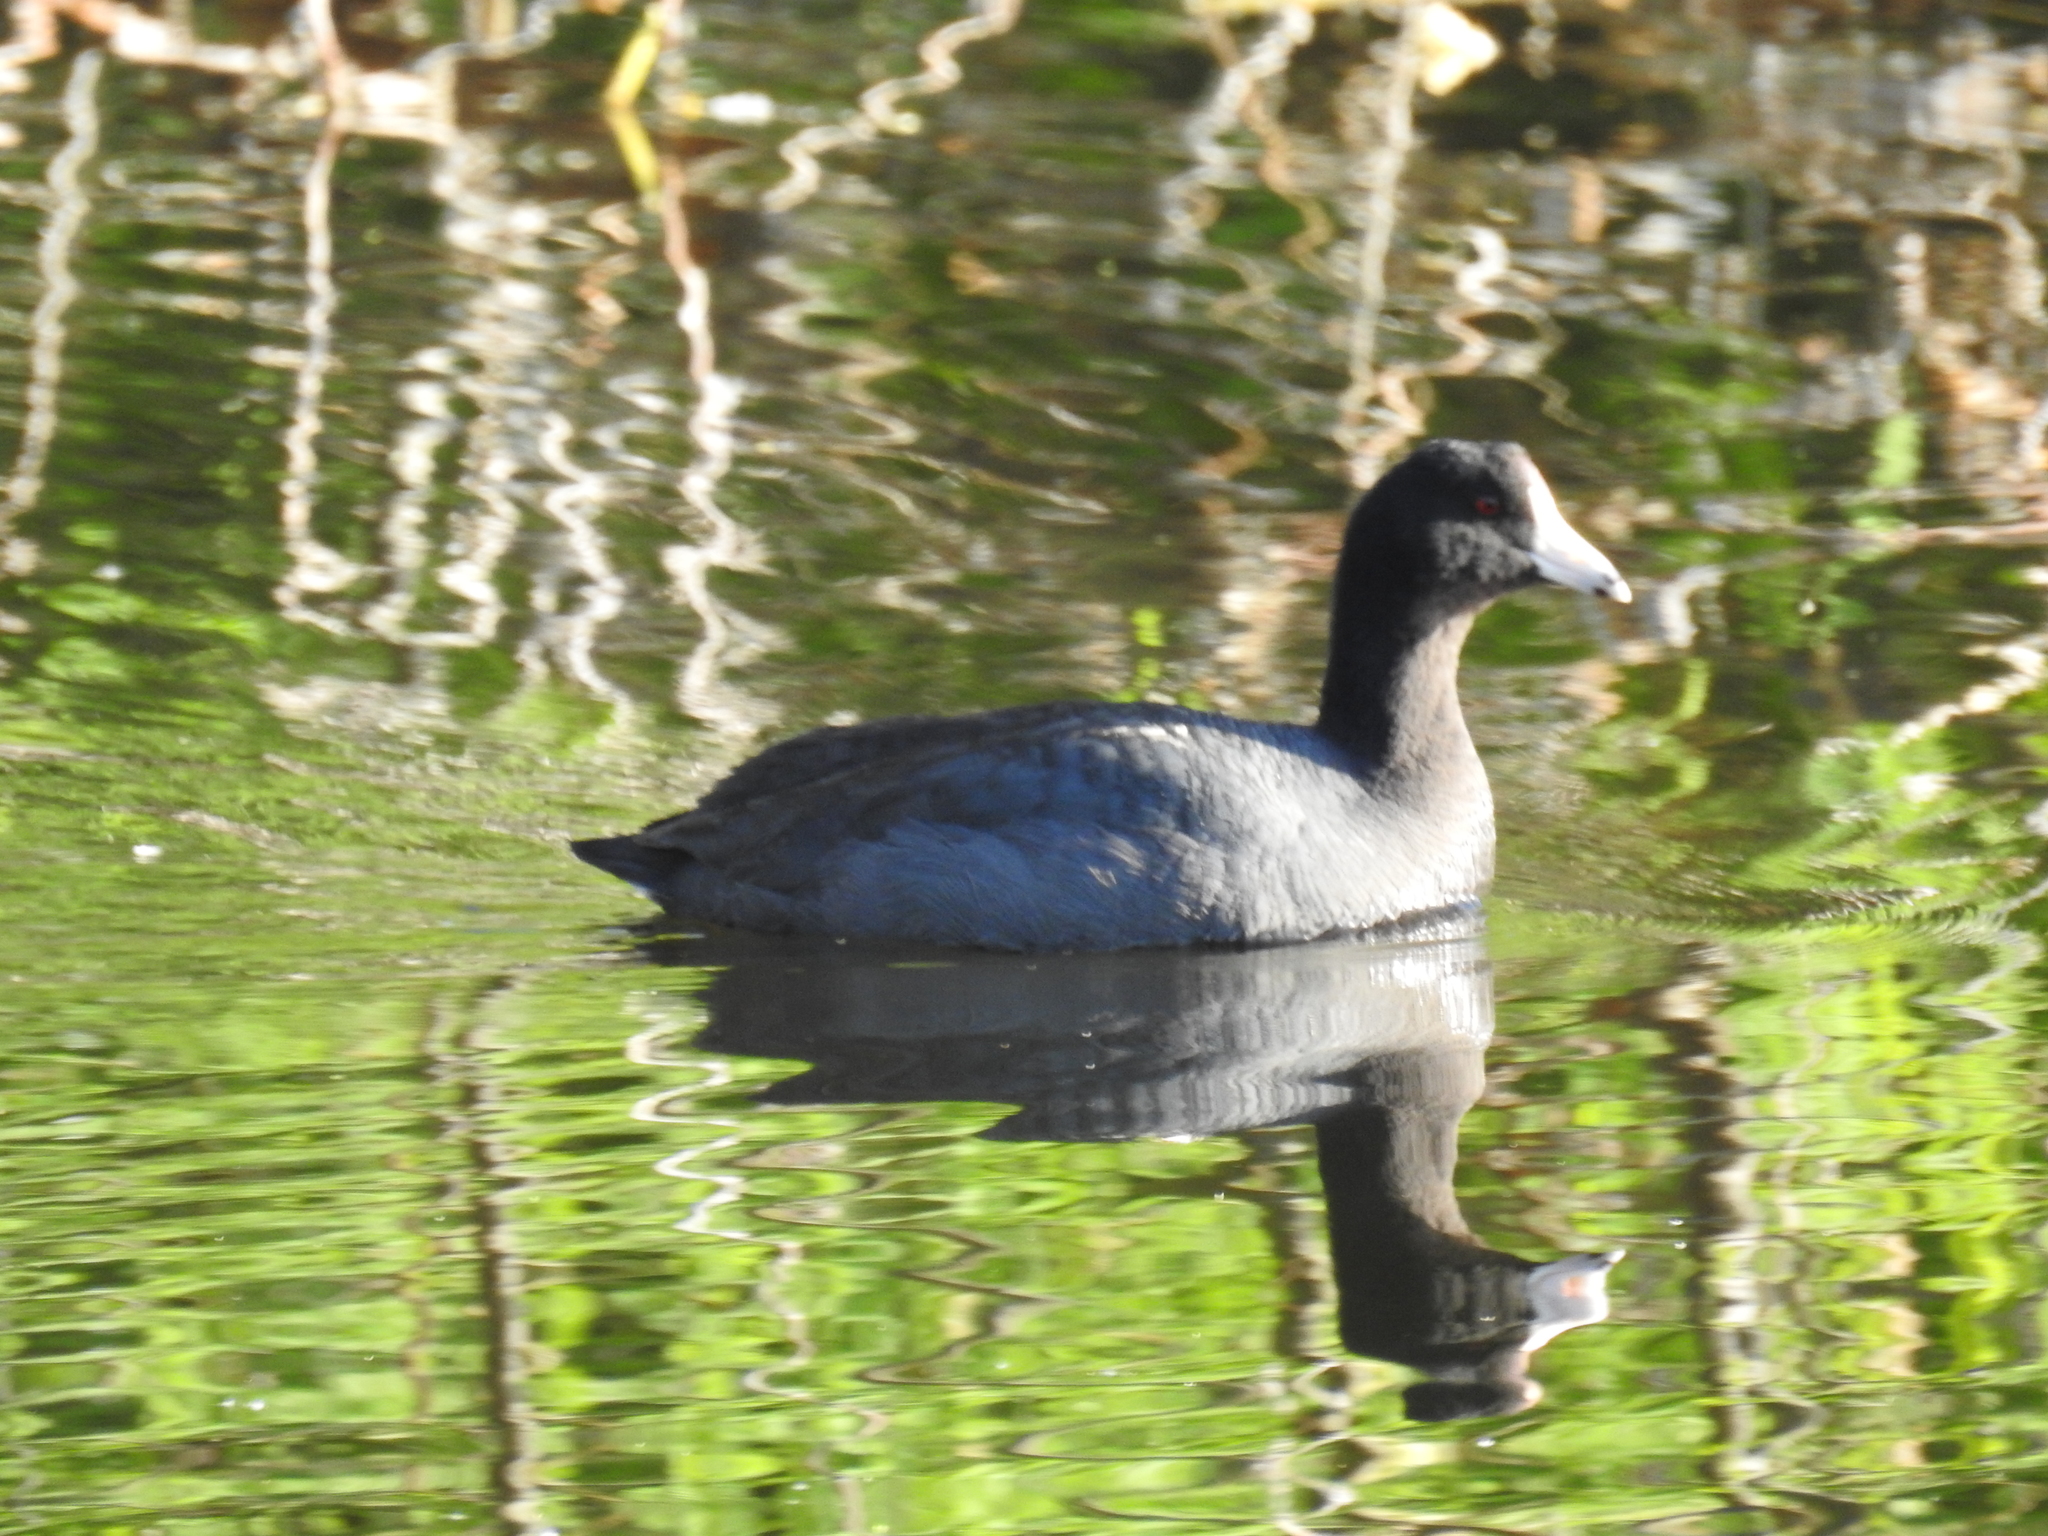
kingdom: Animalia
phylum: Chordata
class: Aves
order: Gruiformes
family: Rallidae
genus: Fulica
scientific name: Fulica americana
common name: American coot
